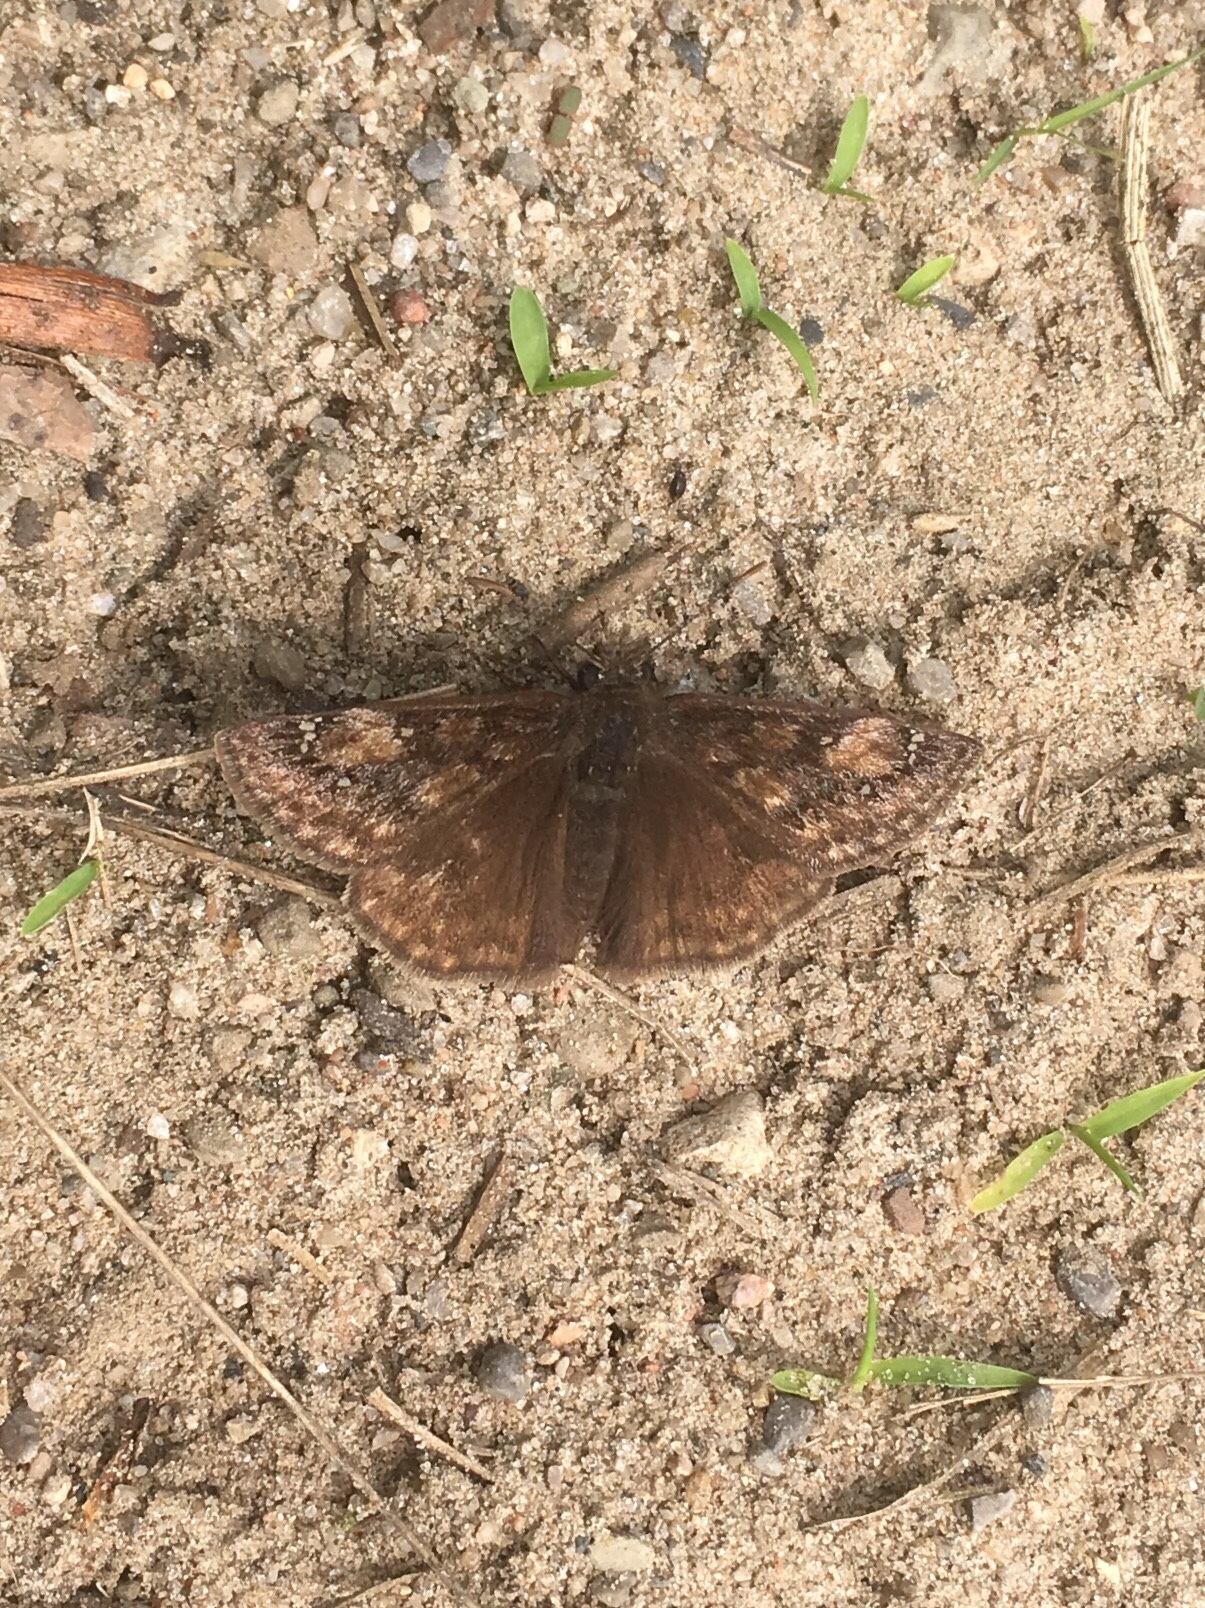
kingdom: Animalia
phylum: Arthropoda
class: Insecta
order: Lepidoptera
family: Hesperiidae
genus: Erynnis
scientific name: Erynnis juvenalis
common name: Juvenal's duskywing
